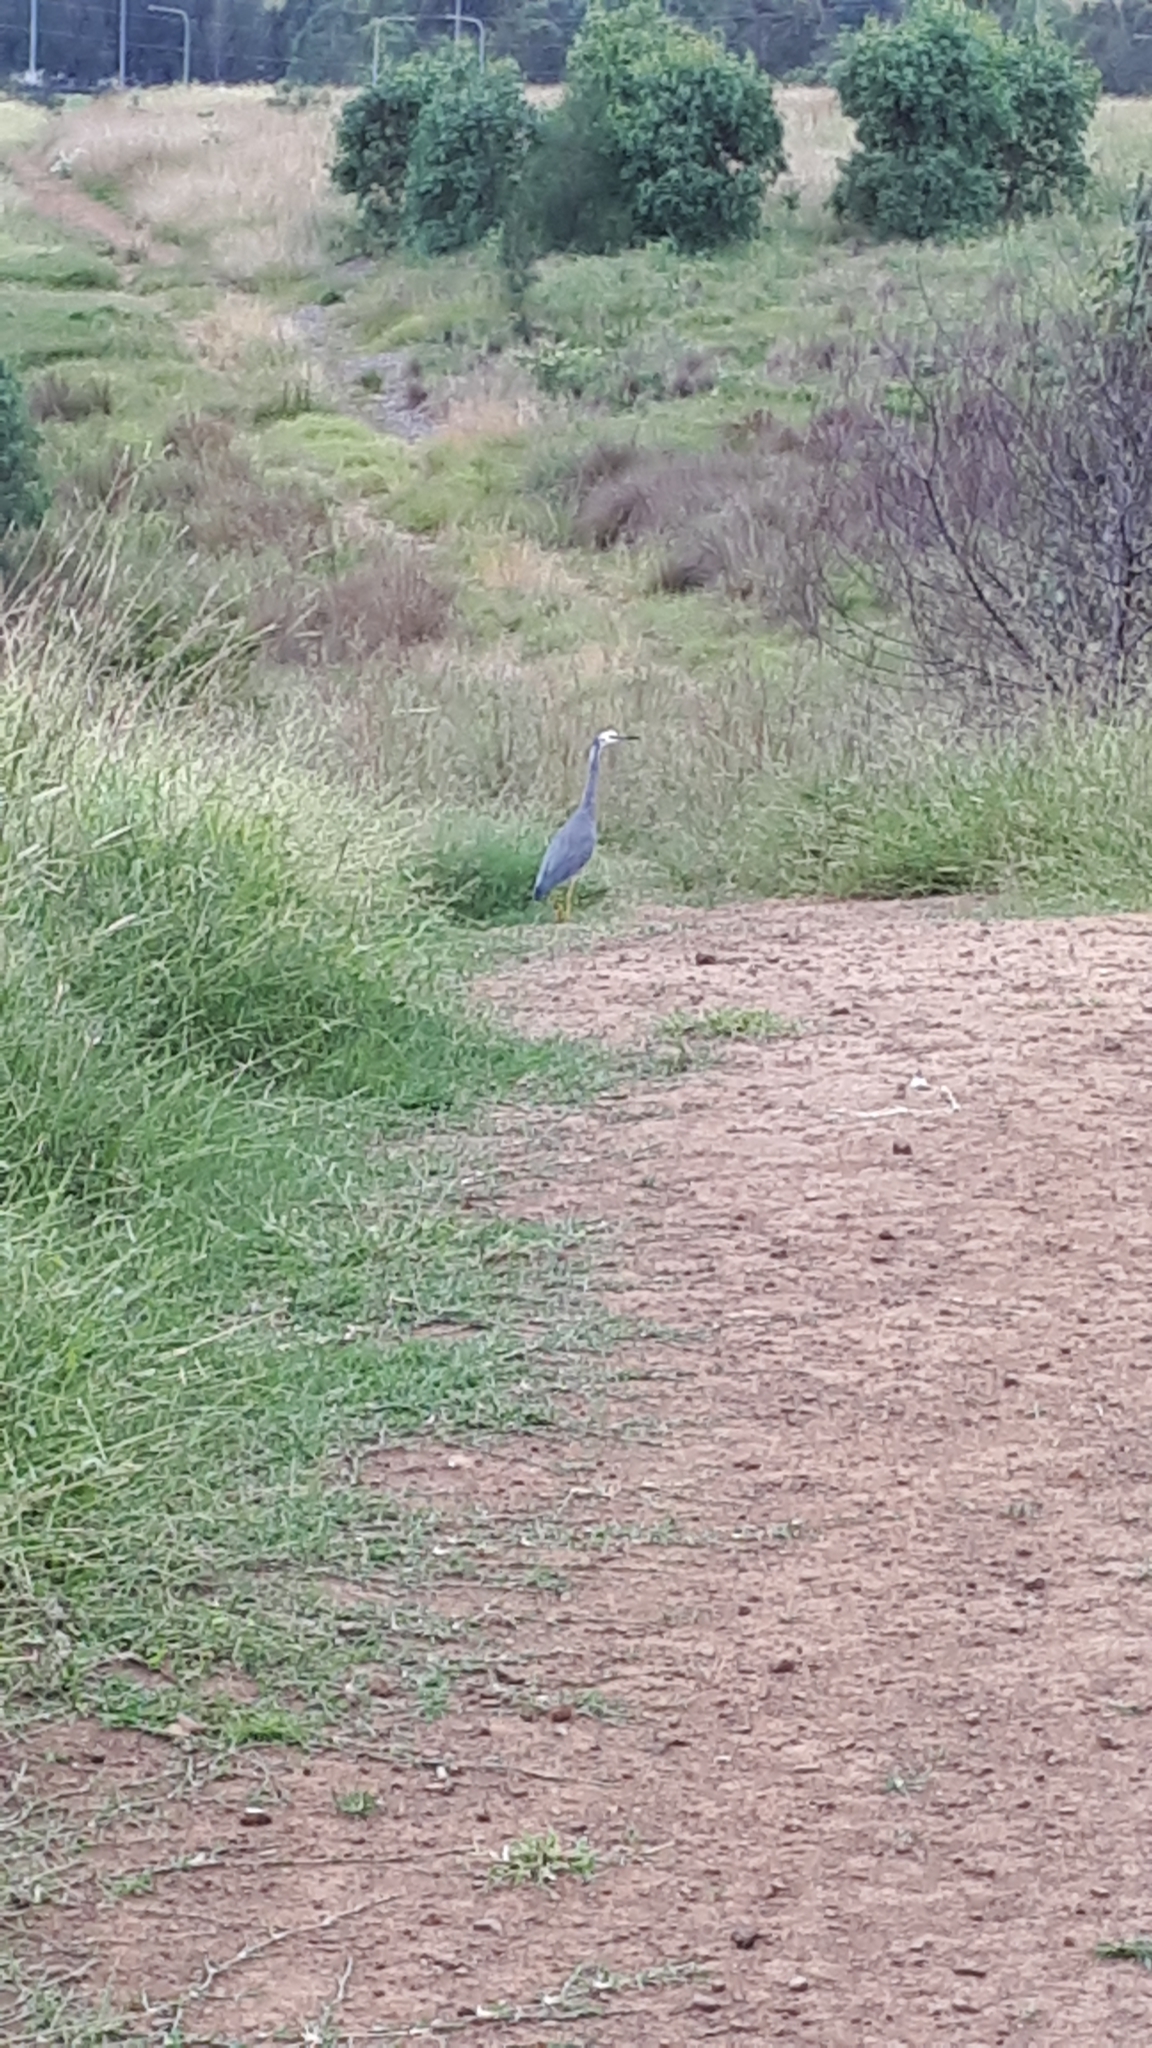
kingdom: Animalia
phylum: Chordata
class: Aves
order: Pelecaniformes
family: Ardeidae
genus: Egretta
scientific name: Egretta novaehollandiae
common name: White-faced heron
